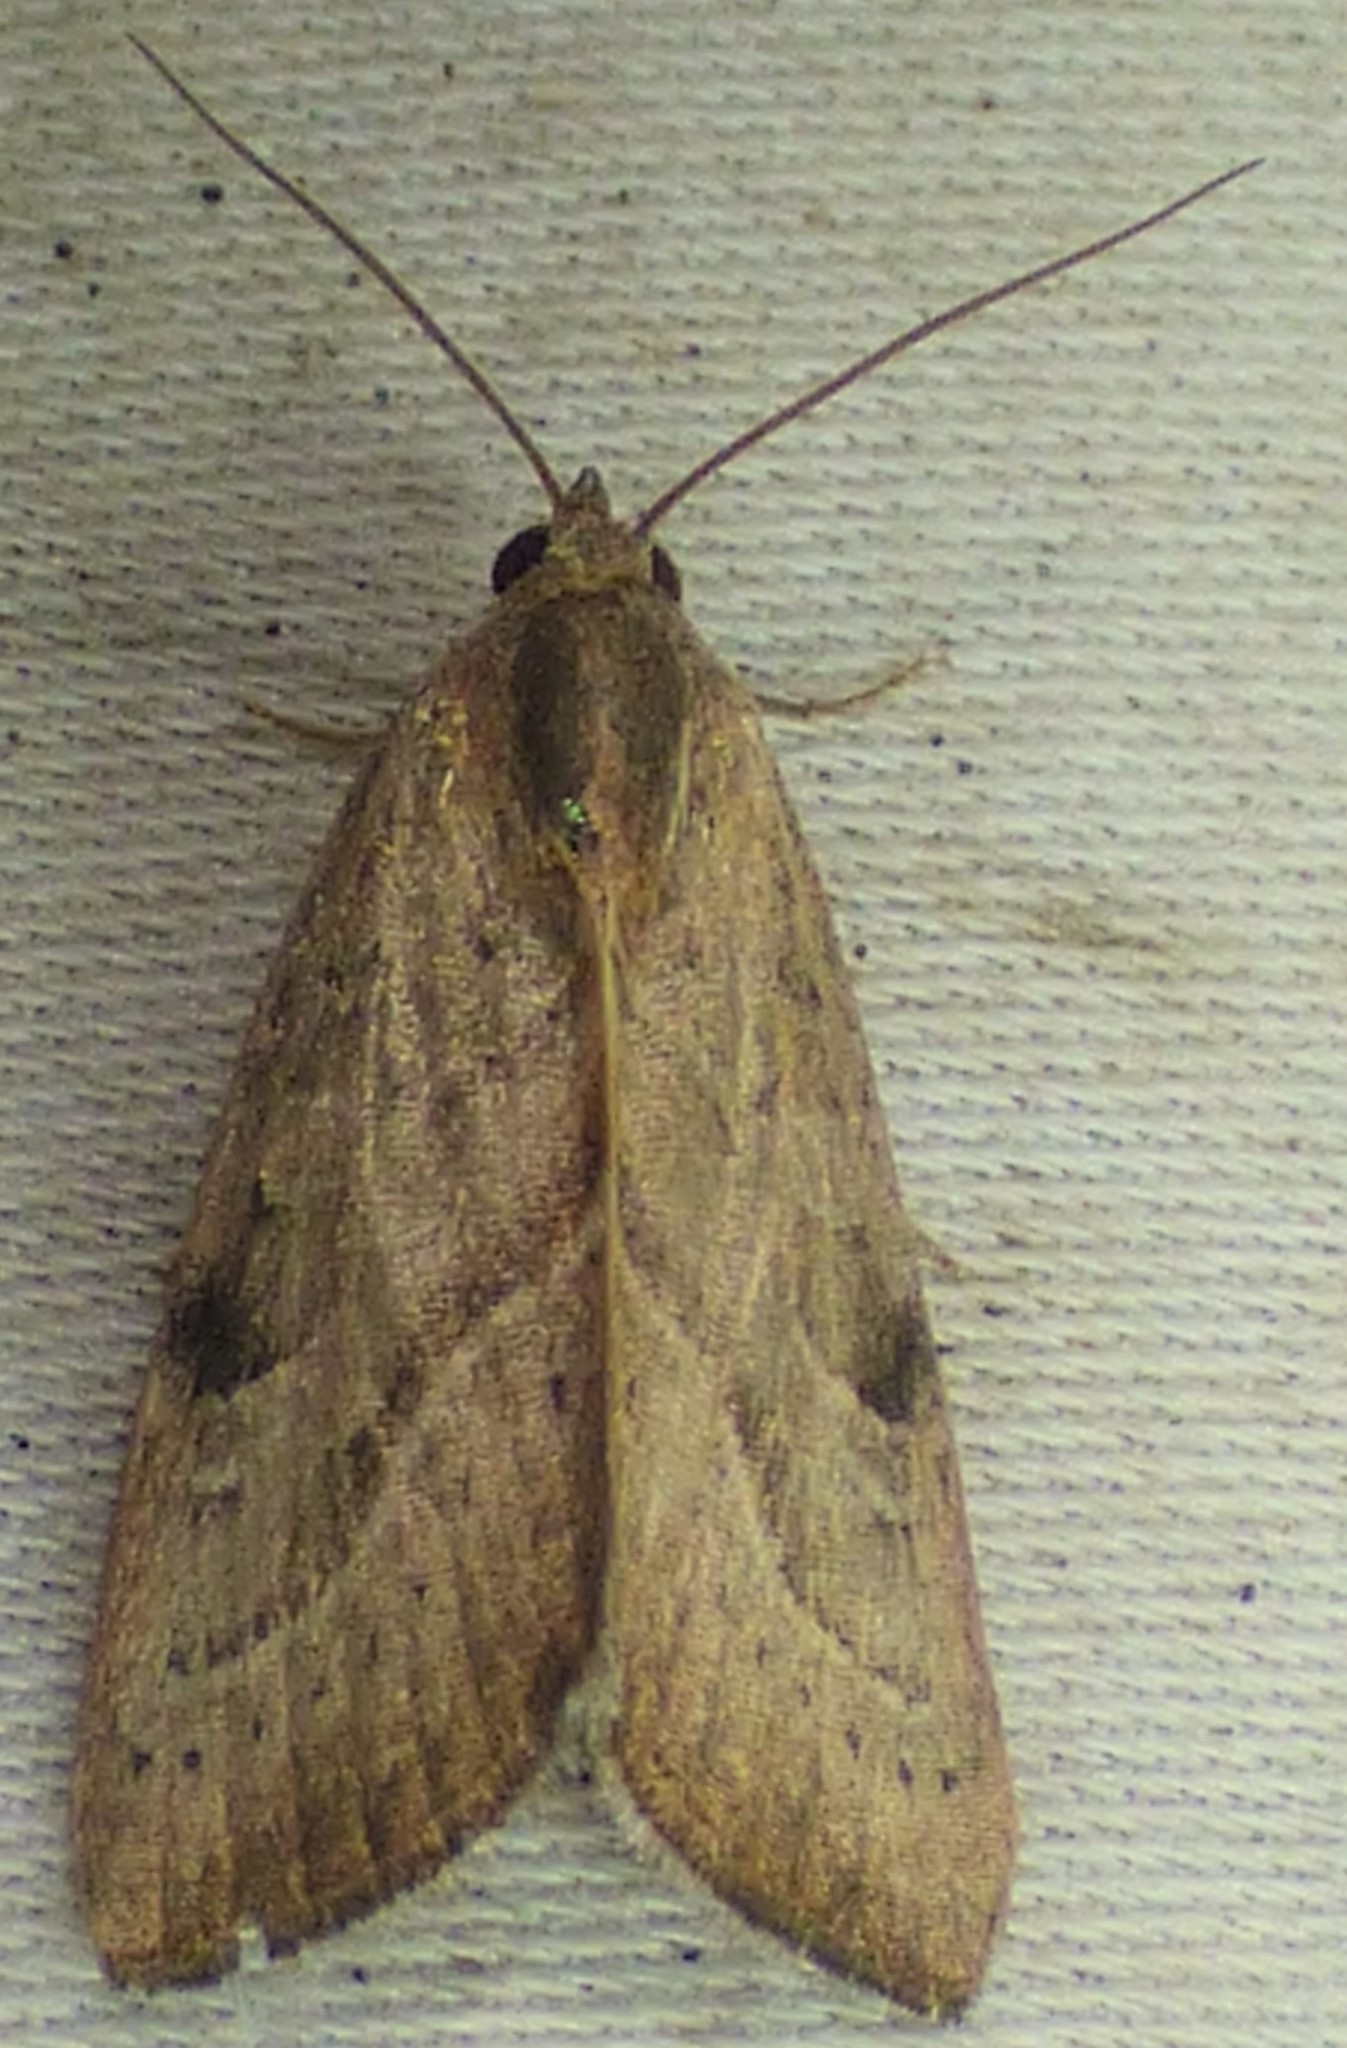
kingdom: Animalia
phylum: Arthropoda
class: Insecta
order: Lepidoptera
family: Noctuidae
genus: Galgula
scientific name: Galgula partita
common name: Wedgeling
